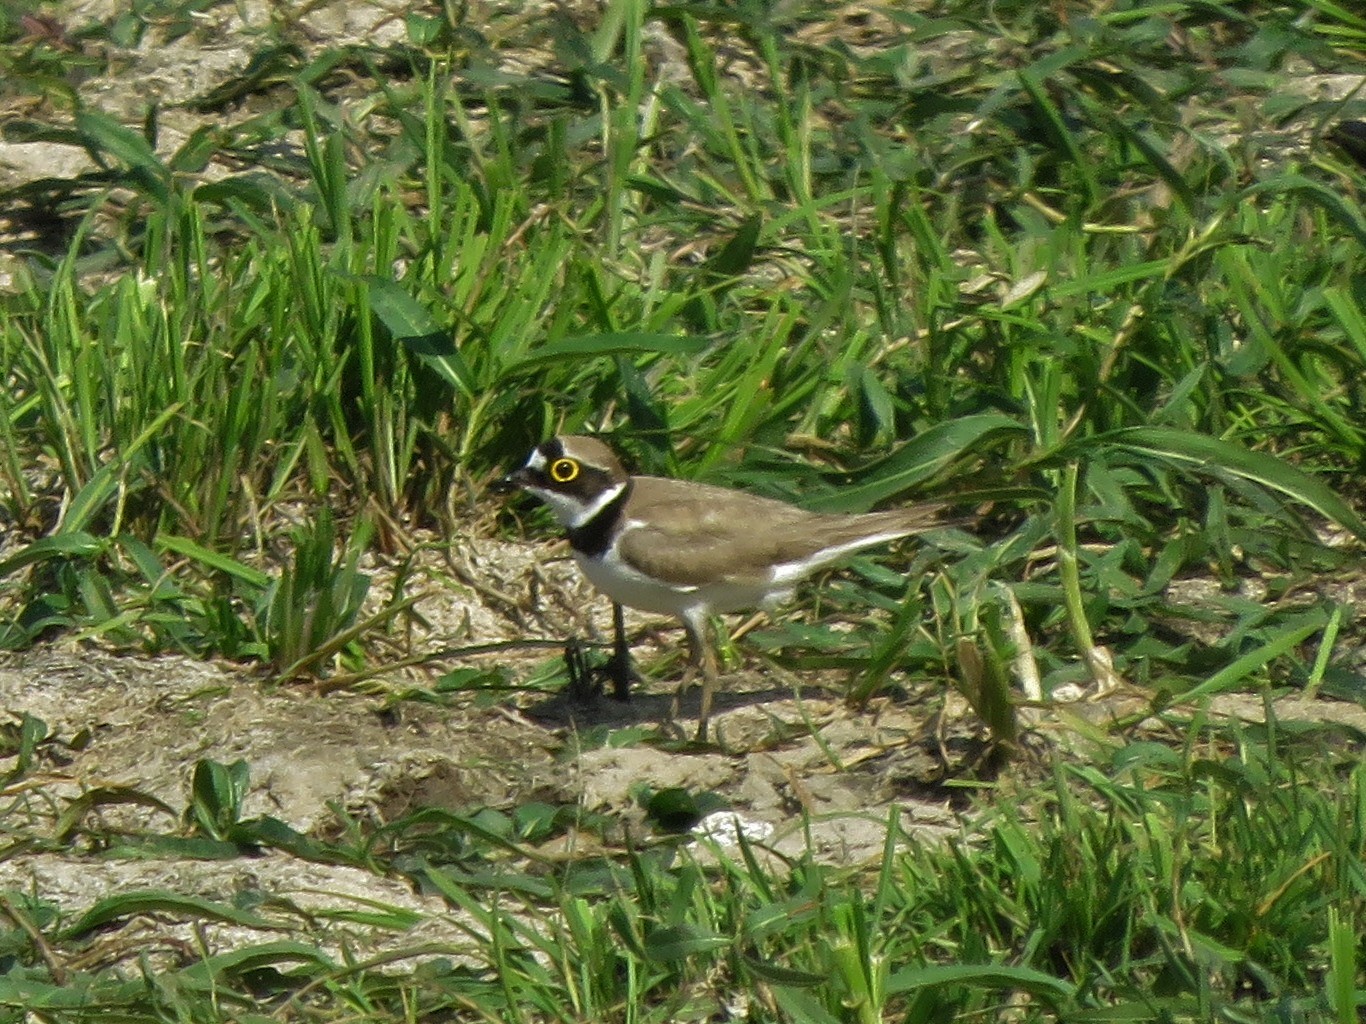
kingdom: Animalia
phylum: Chordata
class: Aves
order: Charadriiformes
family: Charadriidae
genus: Charadrius
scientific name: Charadrius dubius
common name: Little ringed plover
